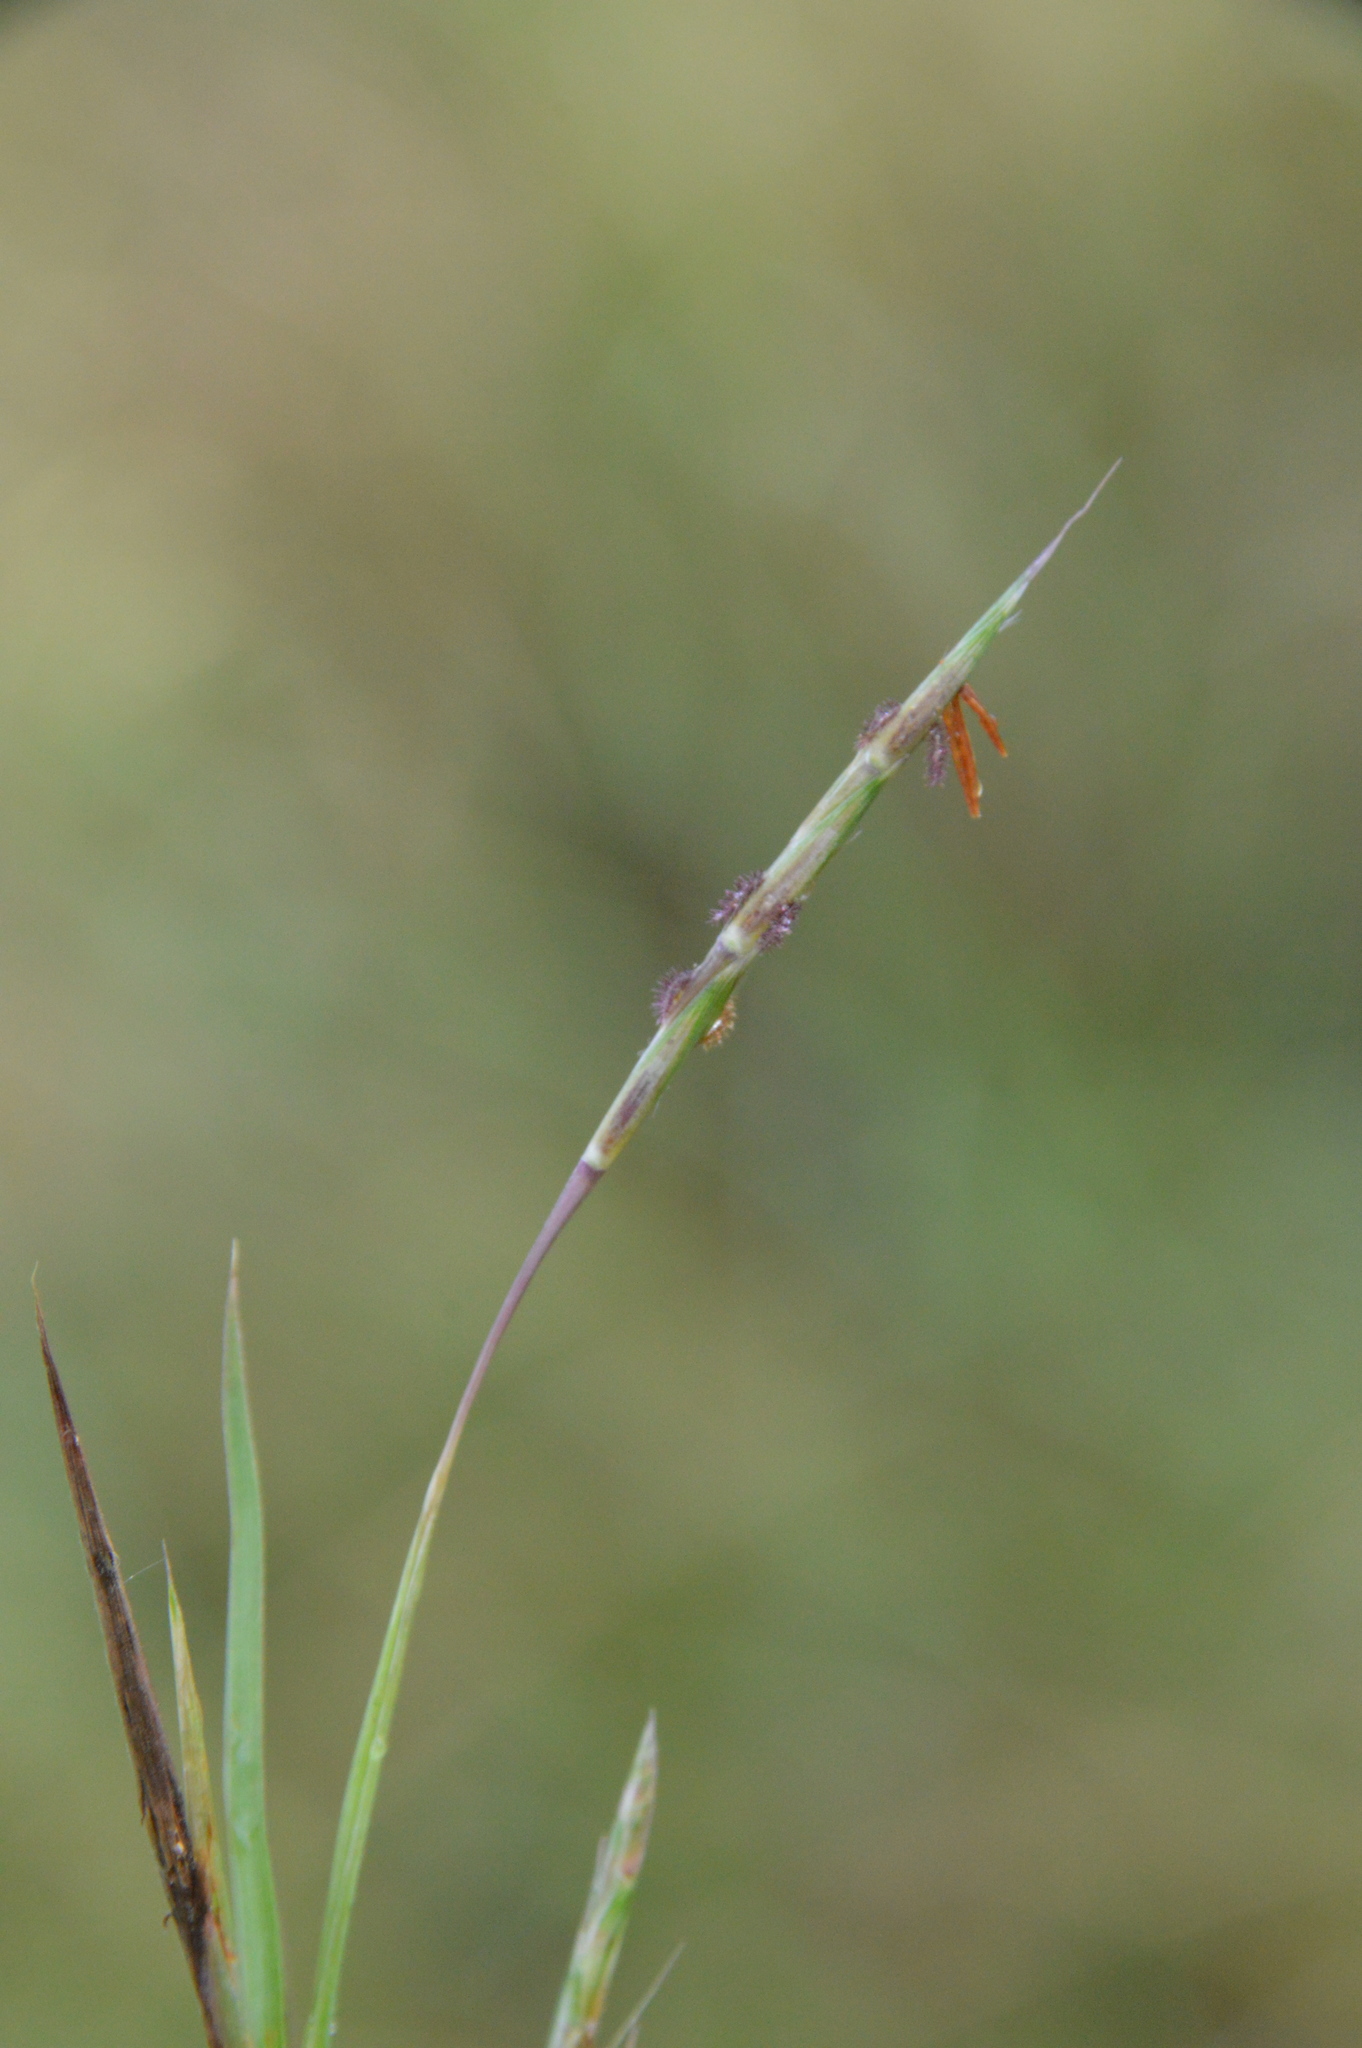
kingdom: Plantae
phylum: Tracheophyta
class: Liliopsida
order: Poales
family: Poaceae
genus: Schizachyrium
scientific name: Schizachyrium scoparium
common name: Little bluestem
